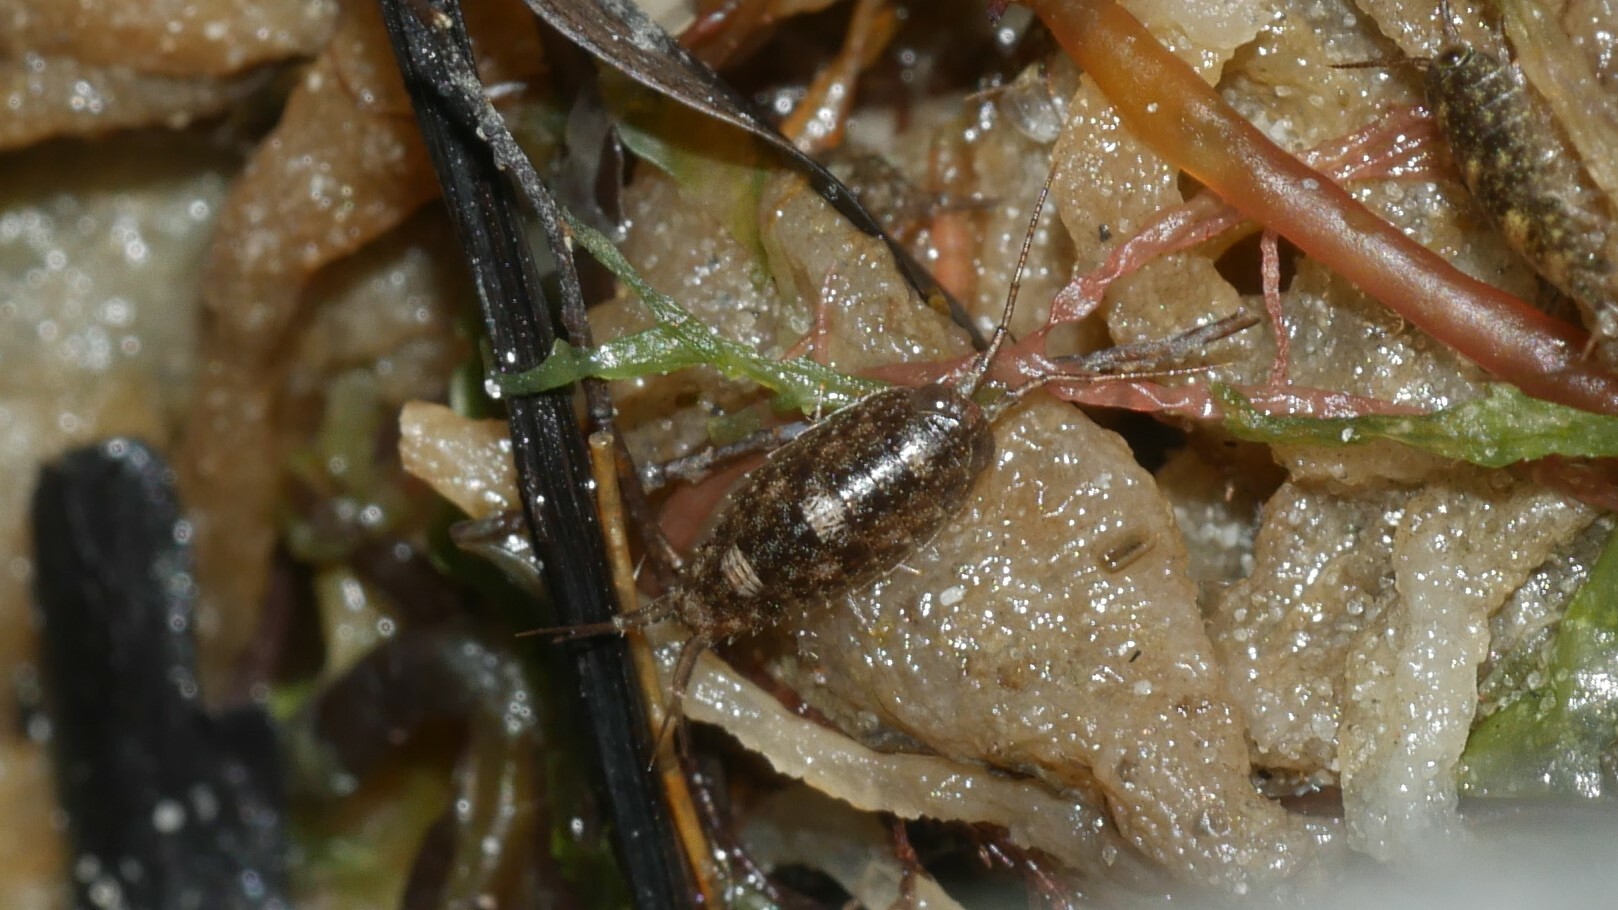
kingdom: Animalia
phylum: Arthropoda
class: Malacostraca
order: Isopoda
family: Ligiidae
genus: Ligia
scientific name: Ligia exotica
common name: Wharf roach
